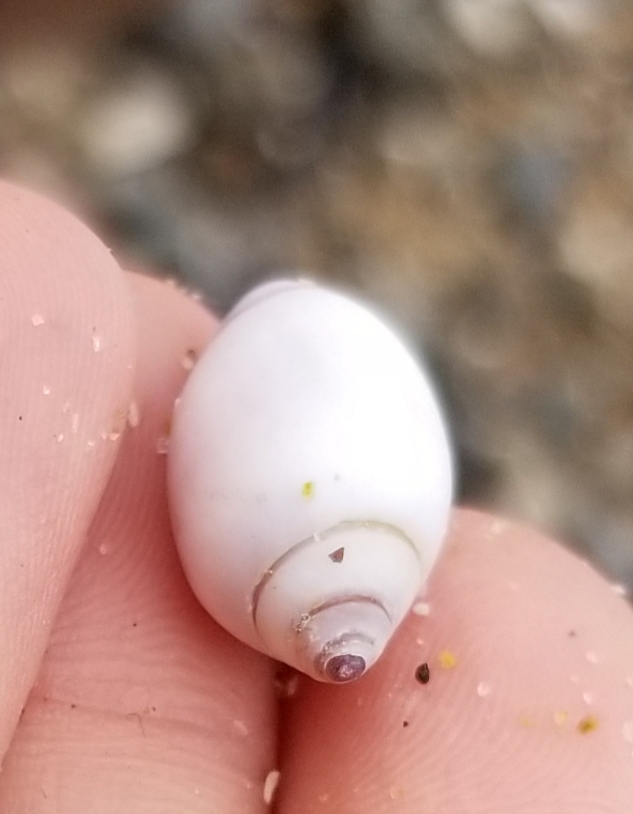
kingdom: Animalia
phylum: Mollusca
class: Gastropoda
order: Neogastropoda
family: Olividae
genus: Callianax
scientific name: Callianax biplicata
